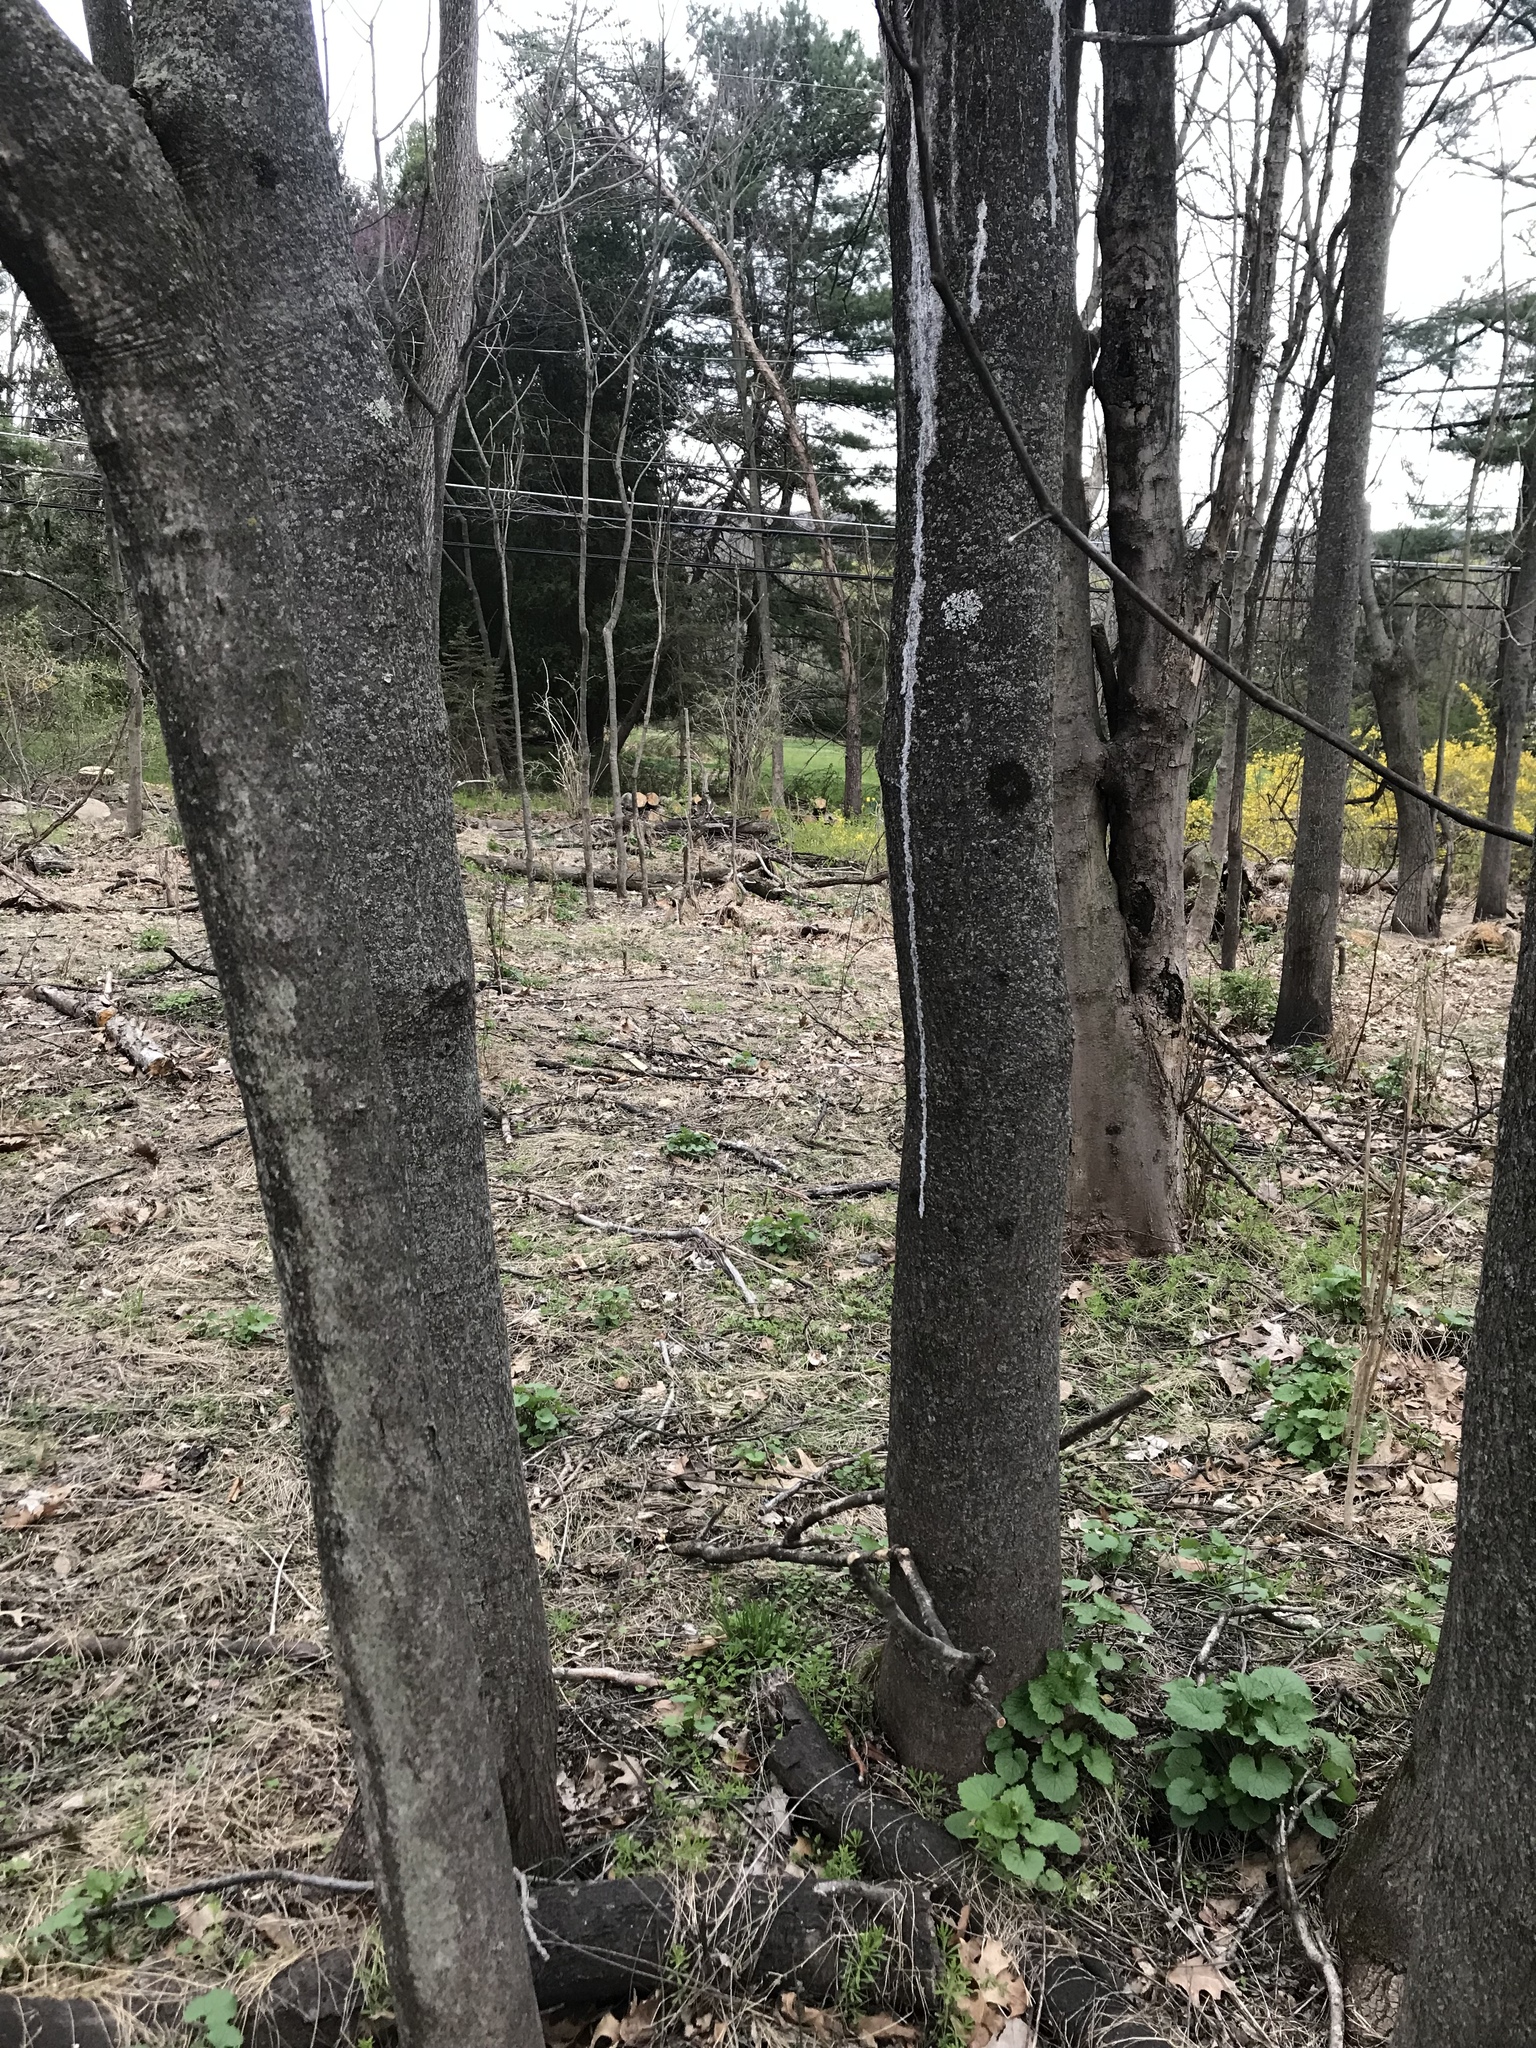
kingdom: Plantae
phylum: Tracheophyta
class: Magnoliopsida
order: Sapindales
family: Simaroubaceae
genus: Ailanthus
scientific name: Ailanthus altissima
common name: Tree-of-heaven
